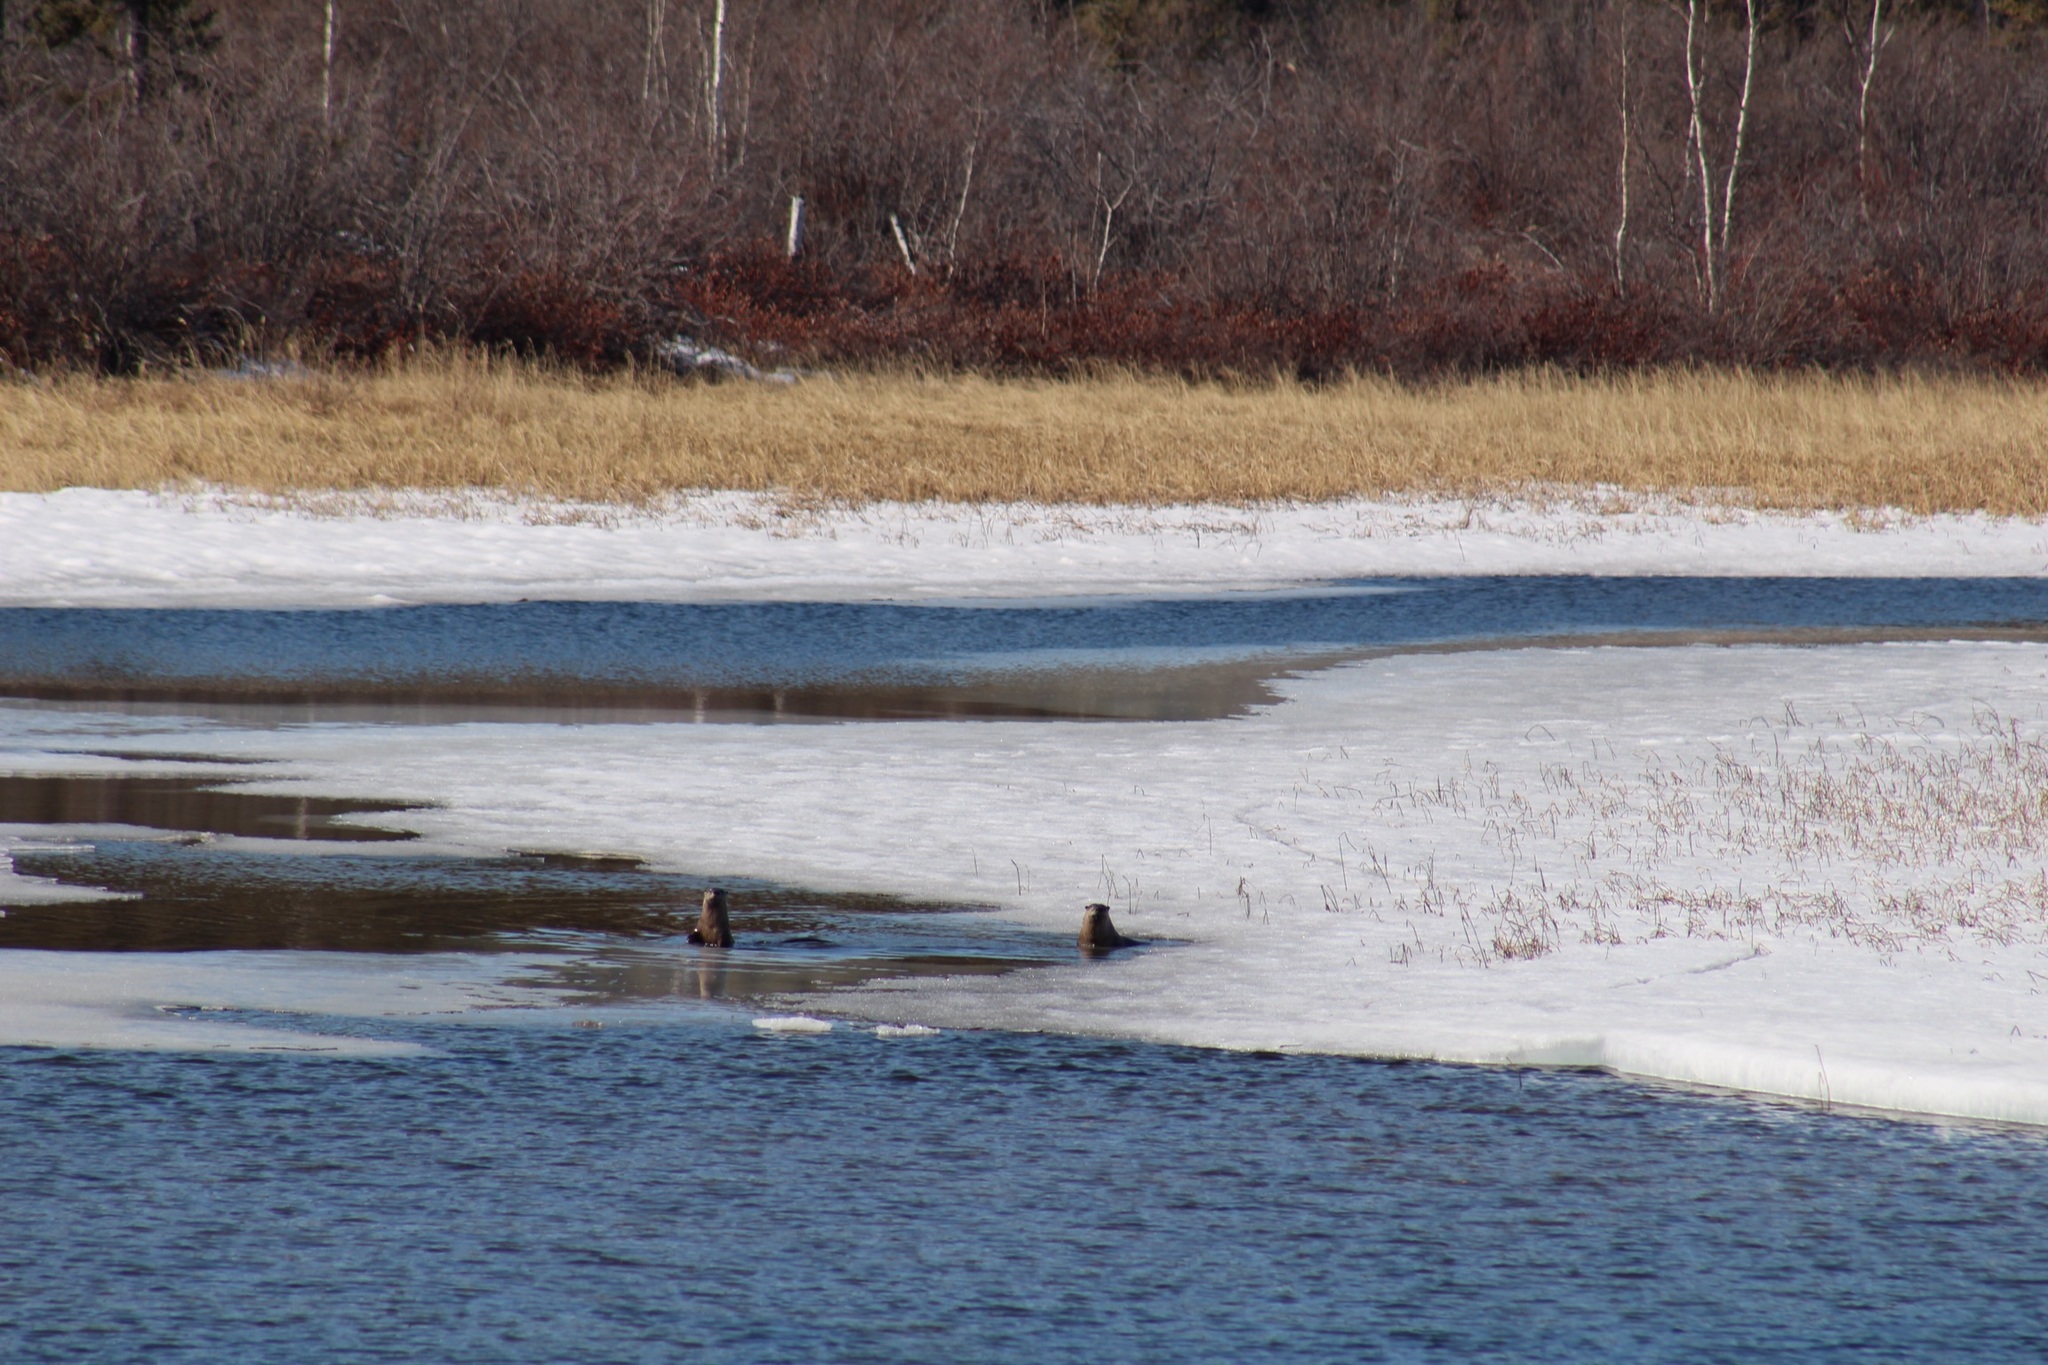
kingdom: Animalia
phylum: Chordata
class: Mammalia
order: Carnivora
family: Mustelidae
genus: Lontra
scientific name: Lontra canadensis
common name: North american river otter
